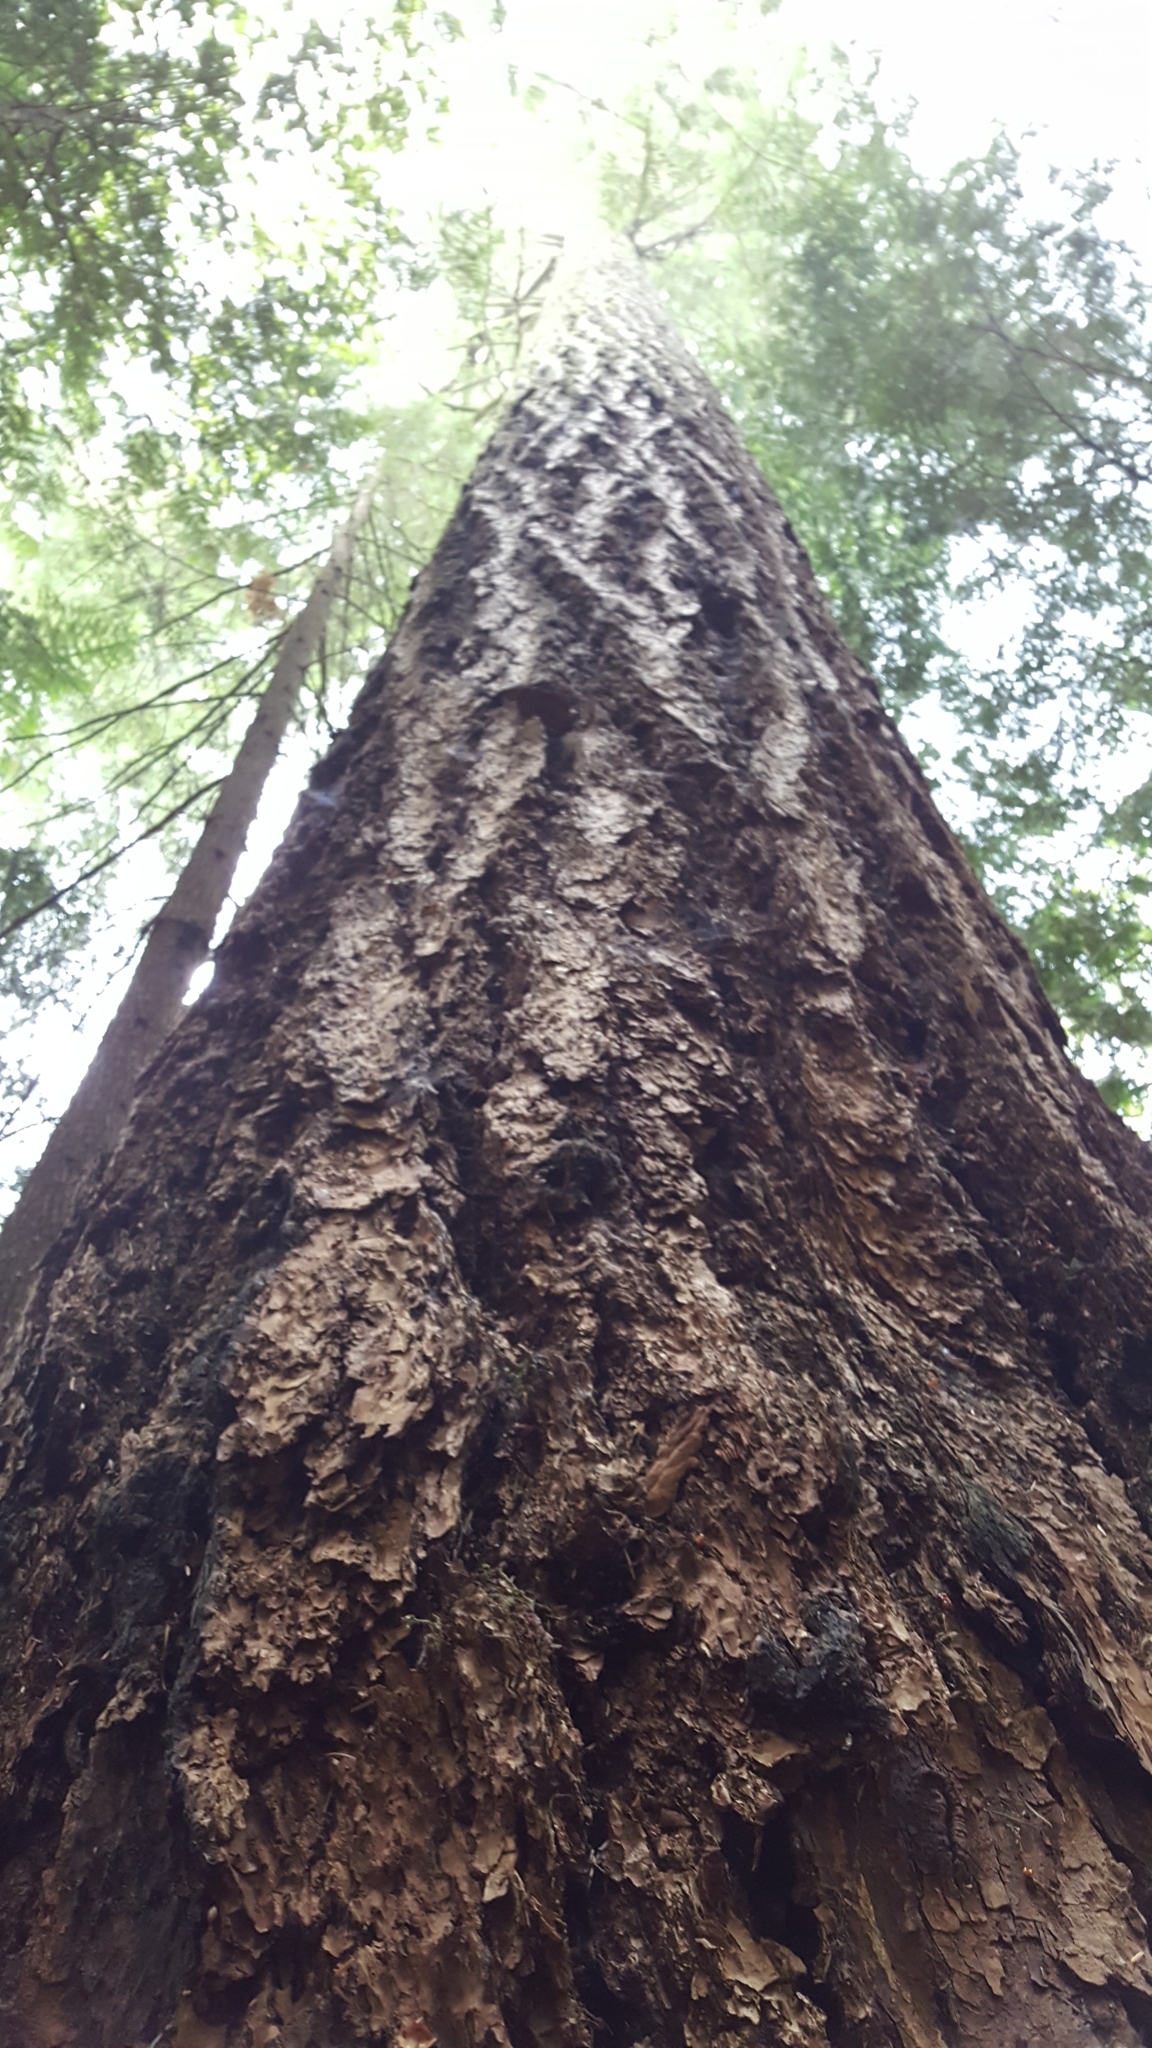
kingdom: Plantae
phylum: Tracheophyta
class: Pinopsida
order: Pinales
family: Pinaceae
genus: Pseudotsuga
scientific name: Pseudotsuga menziesii
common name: Douglas fir
